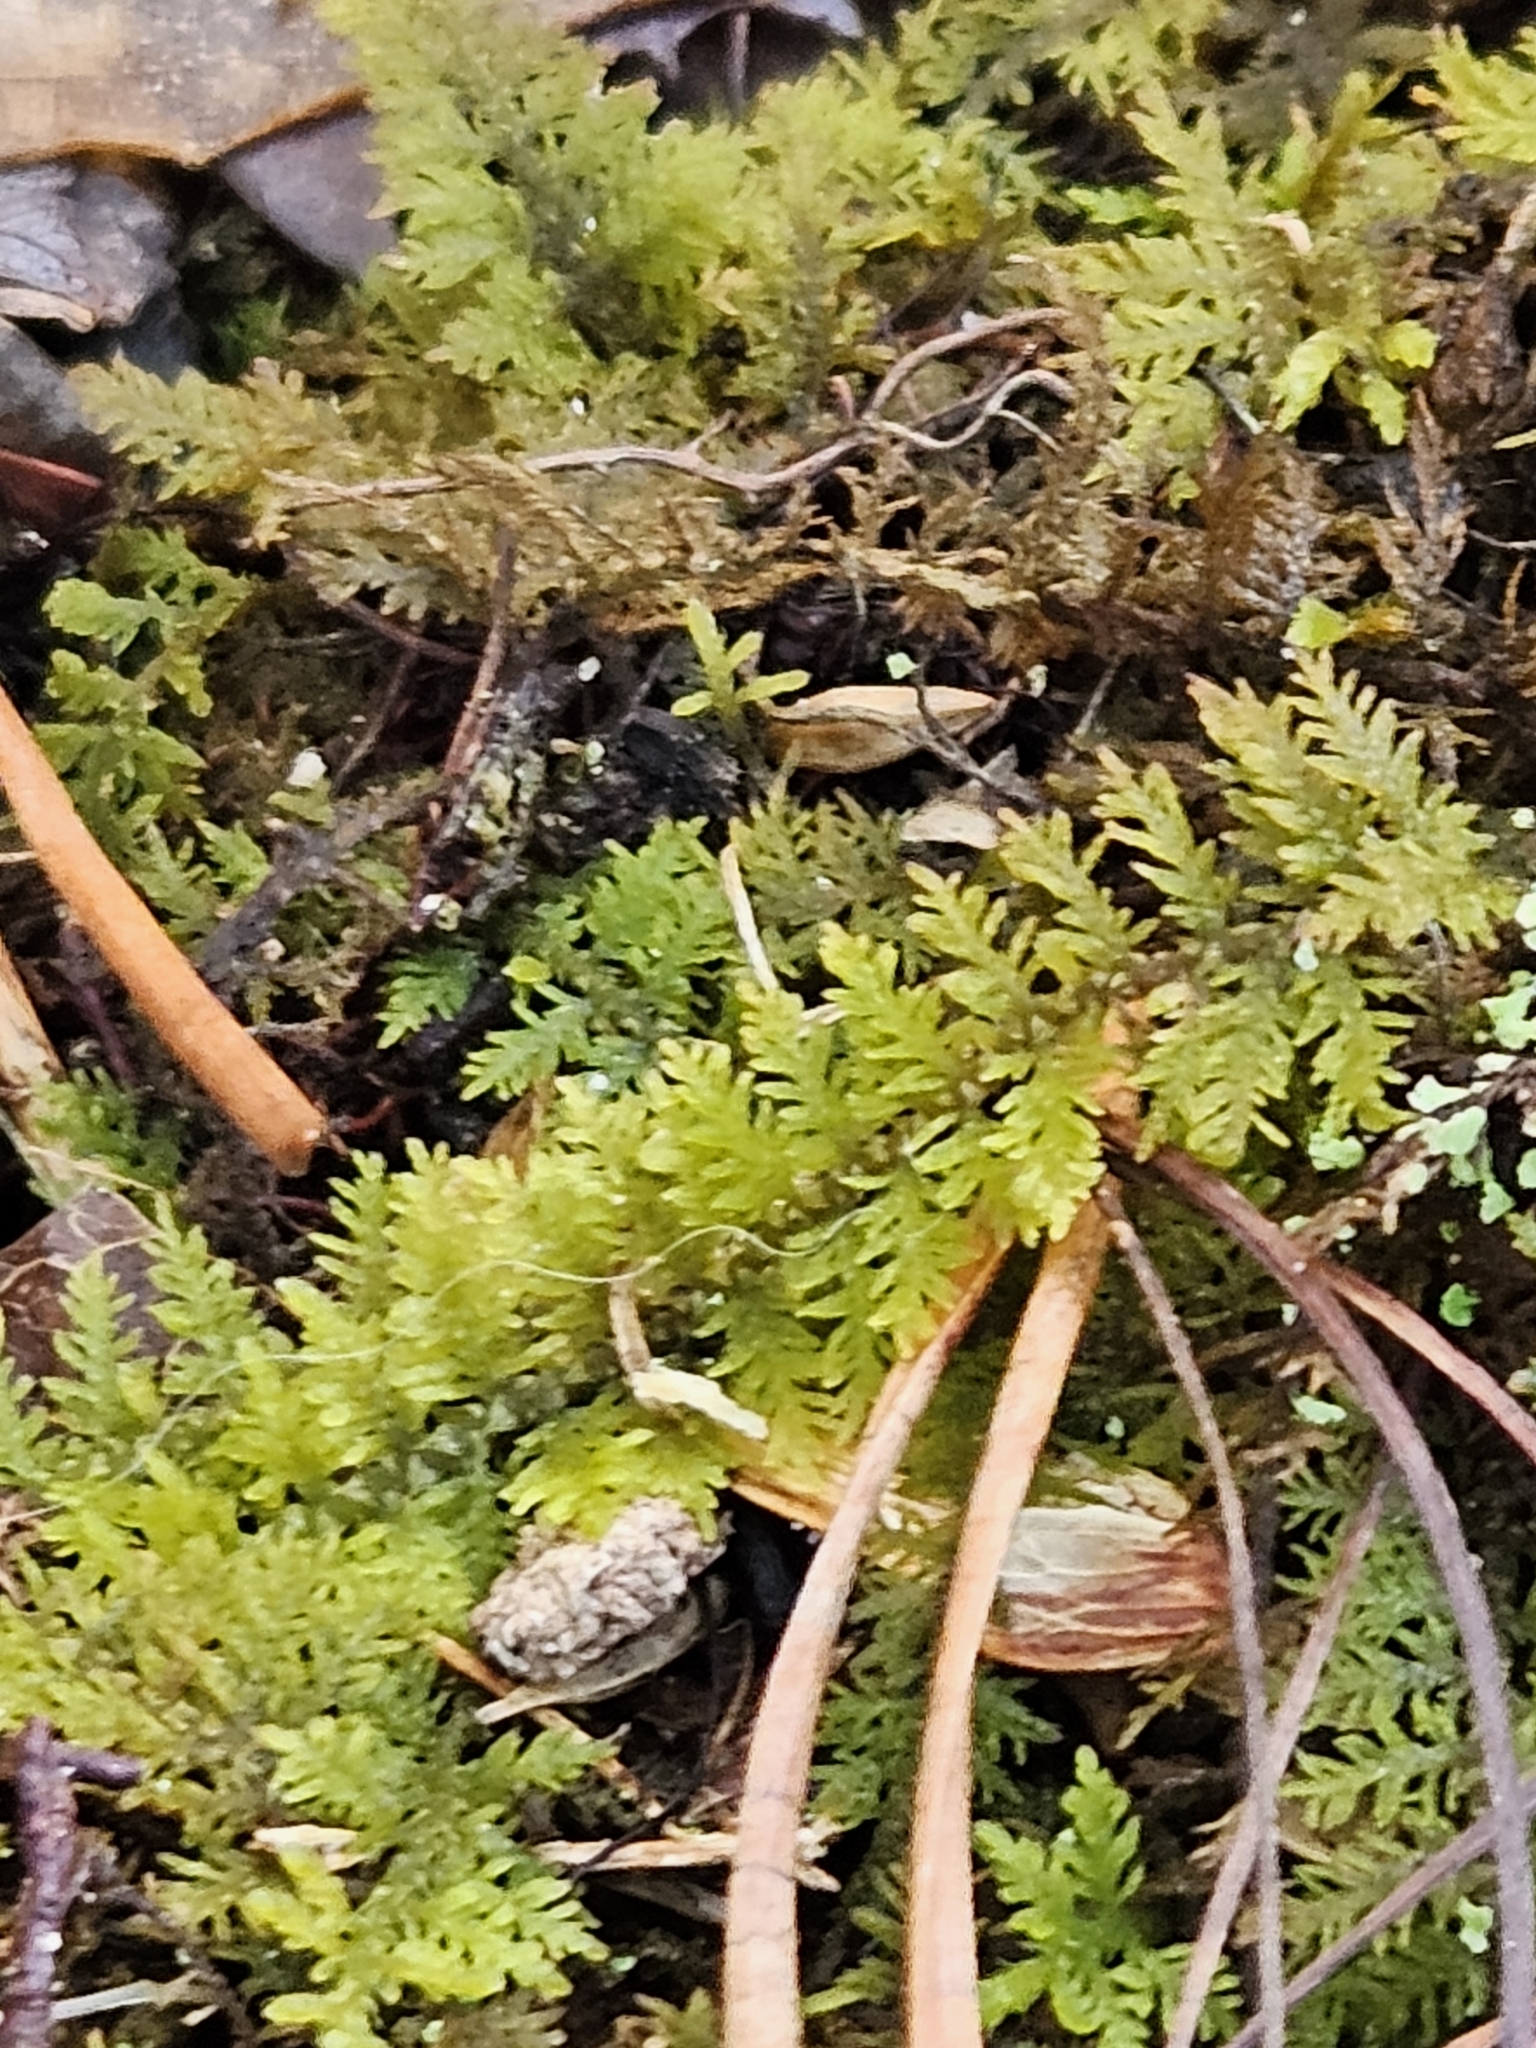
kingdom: Plantae
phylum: Bryophyta
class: Bryopsida
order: Hypnales
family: Thuidiaceae
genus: Thuidium
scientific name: Thuidium delicatulum
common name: Delicate fern moss
